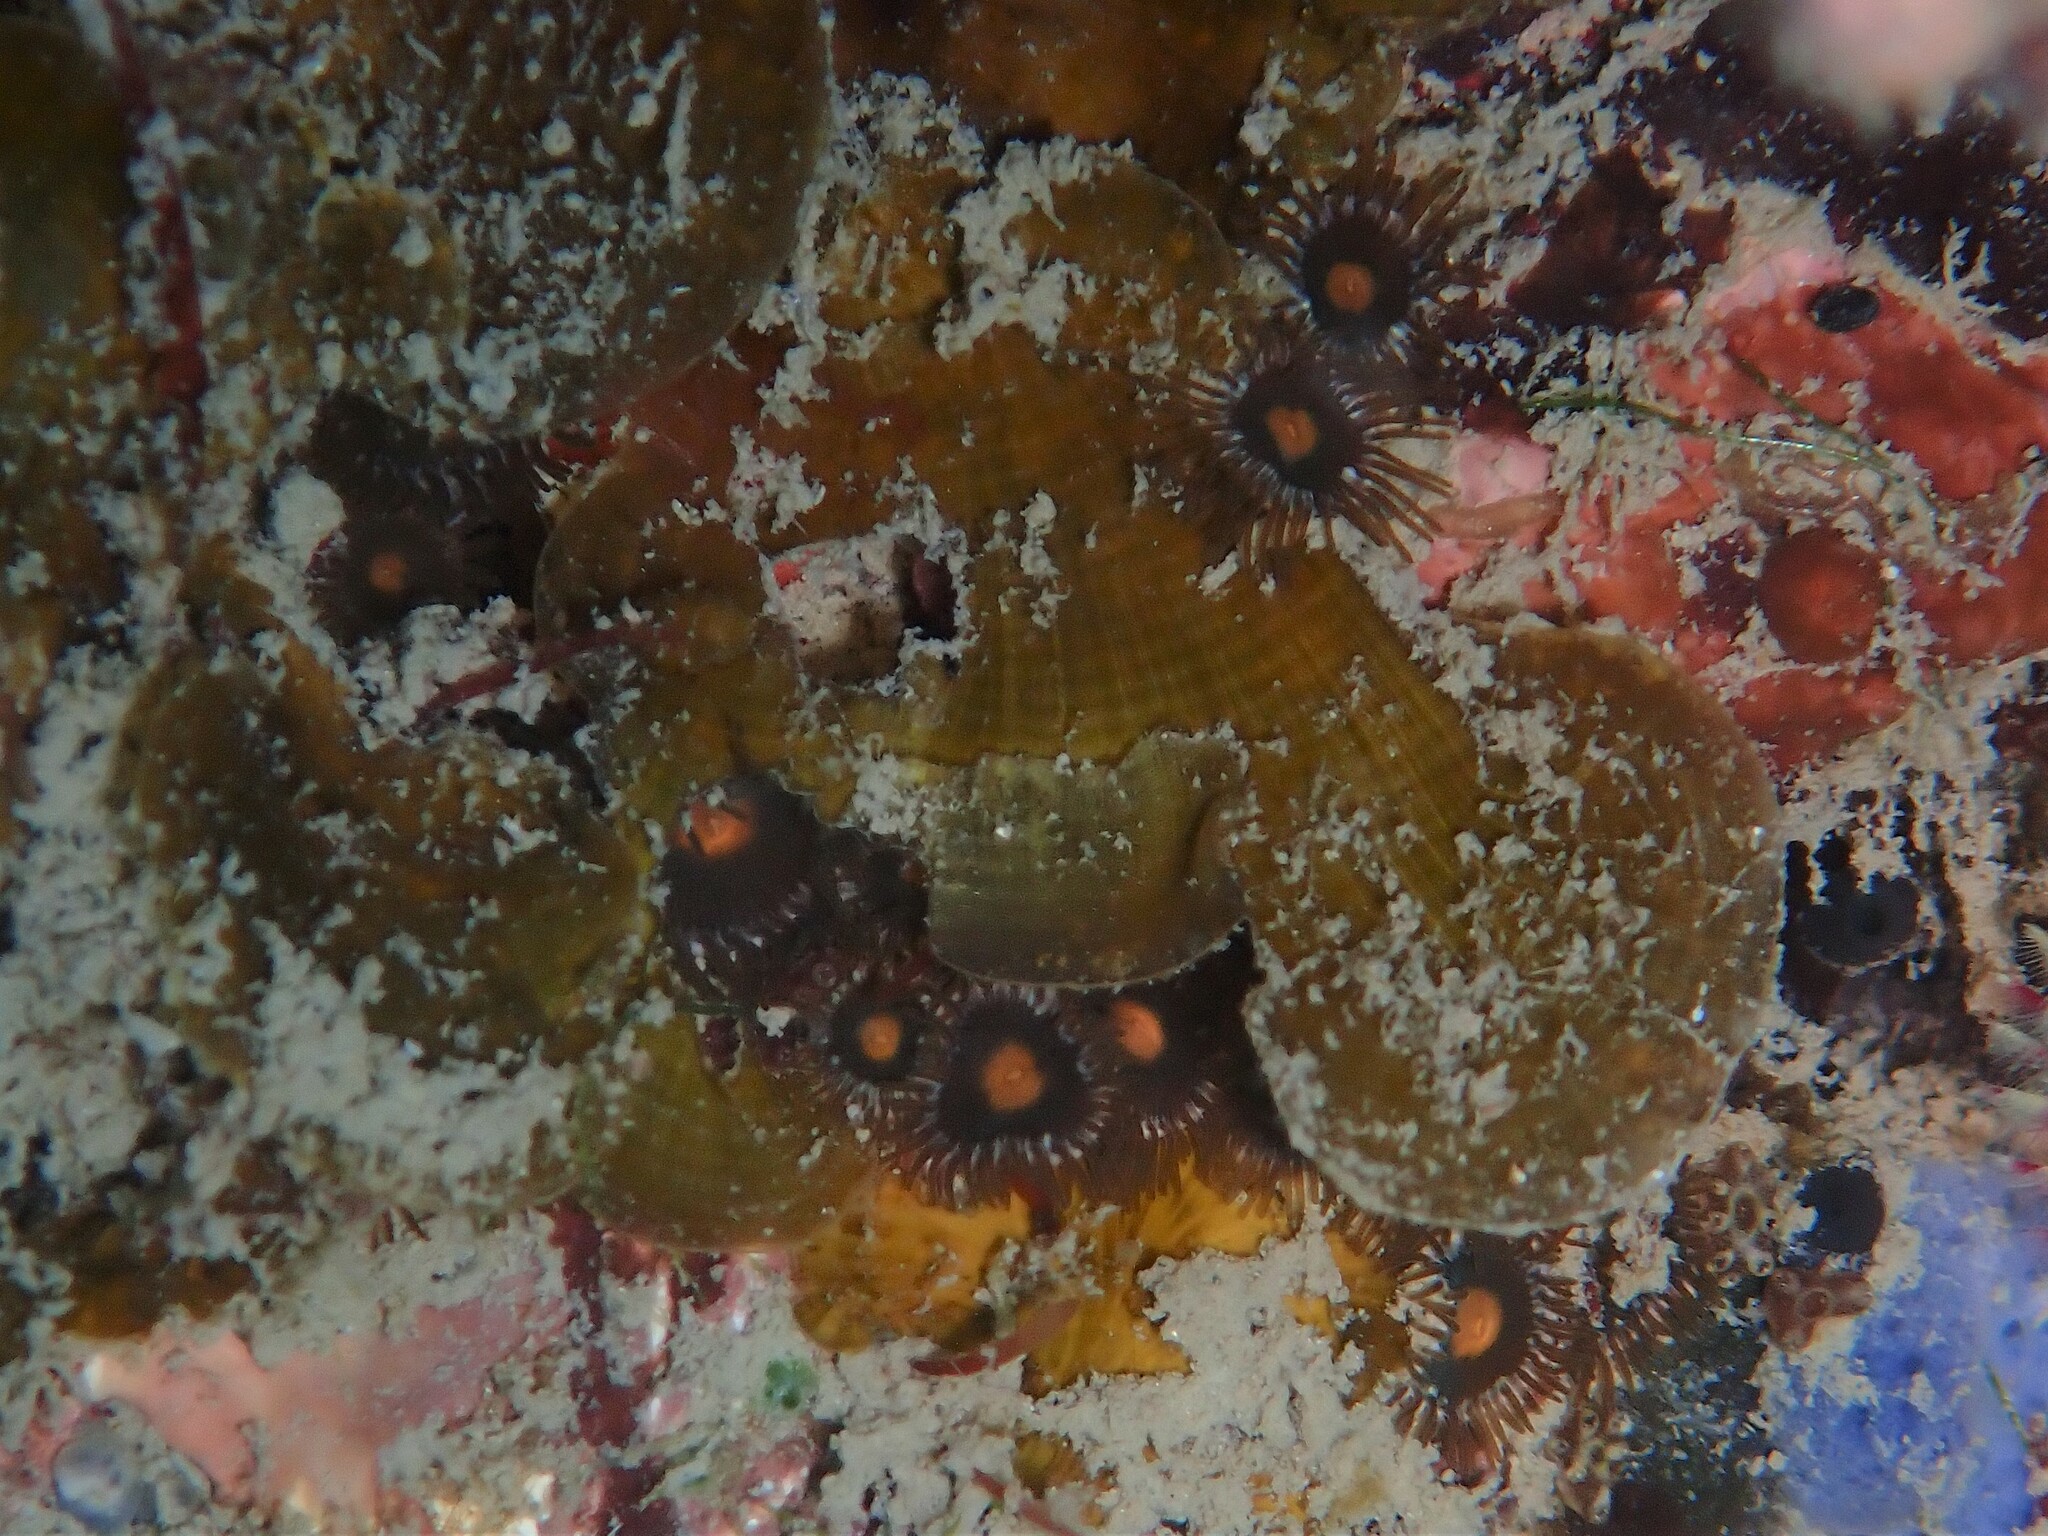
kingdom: Animalia
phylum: Cnidaria
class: Anthozoa
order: Zoantharia
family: Zoanthidae
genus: Zoanthus
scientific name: Zoanthus sansibaricus
